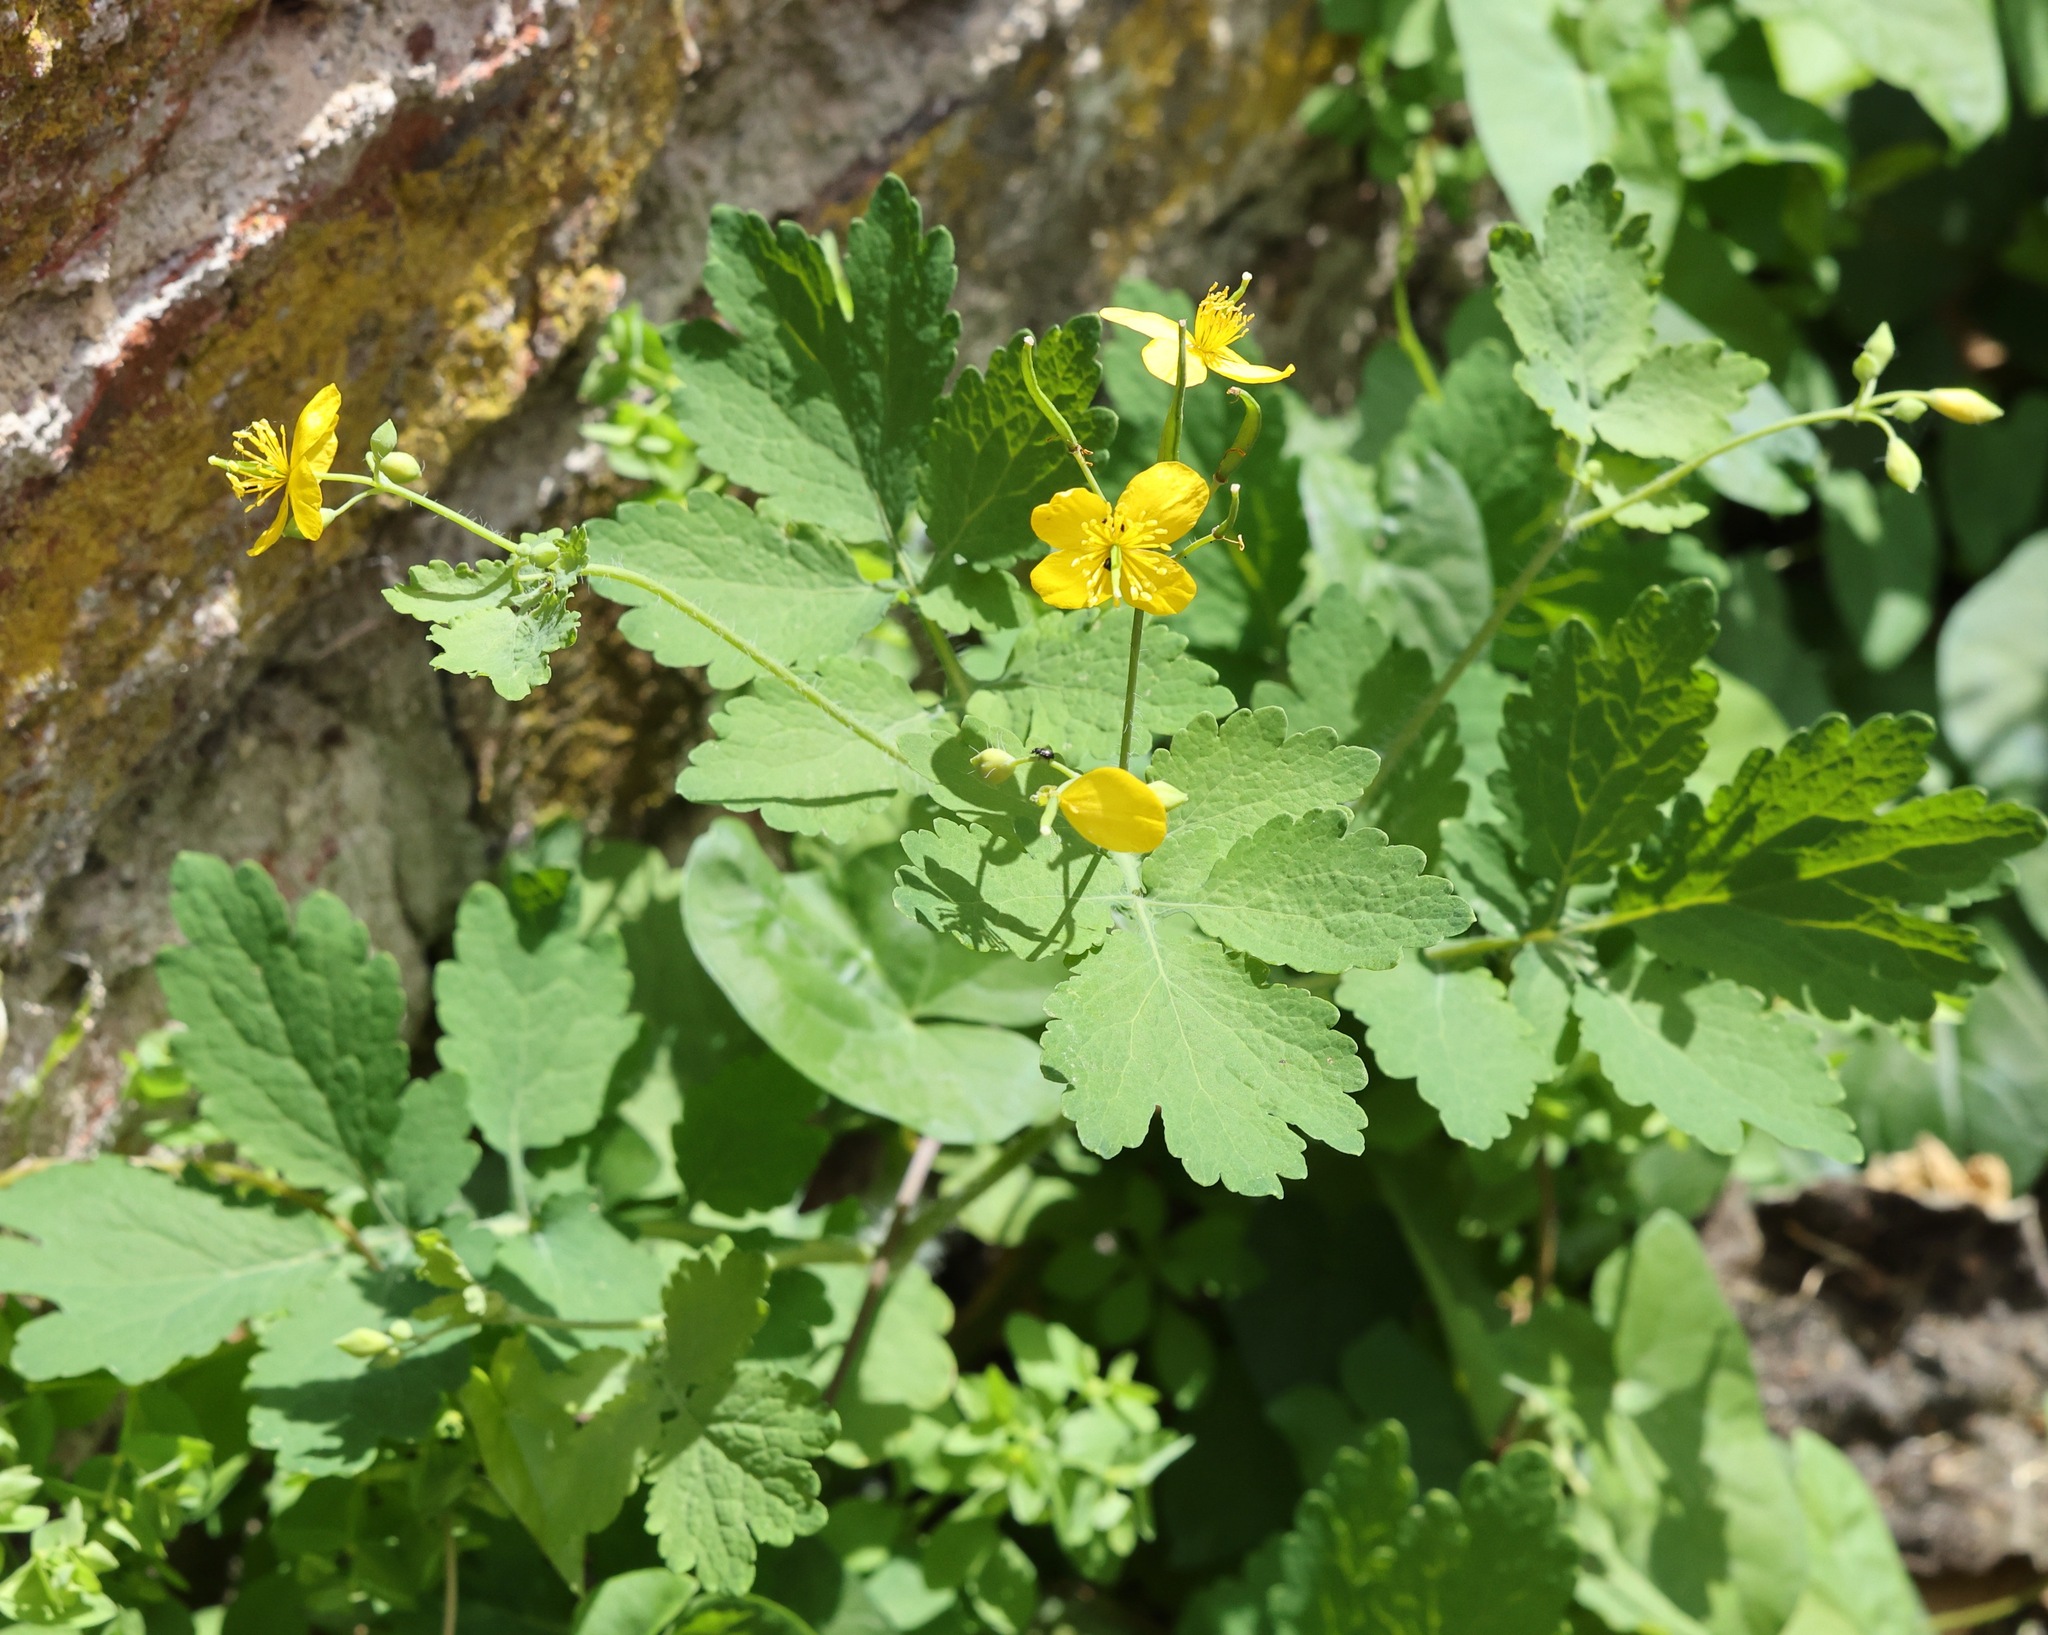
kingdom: Plantae
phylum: Tracheophyta
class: Magnoliopsida
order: Ranunculales
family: Papaveraceae
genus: Chelidonium
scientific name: Chelidonium majus
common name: Greater celandine
